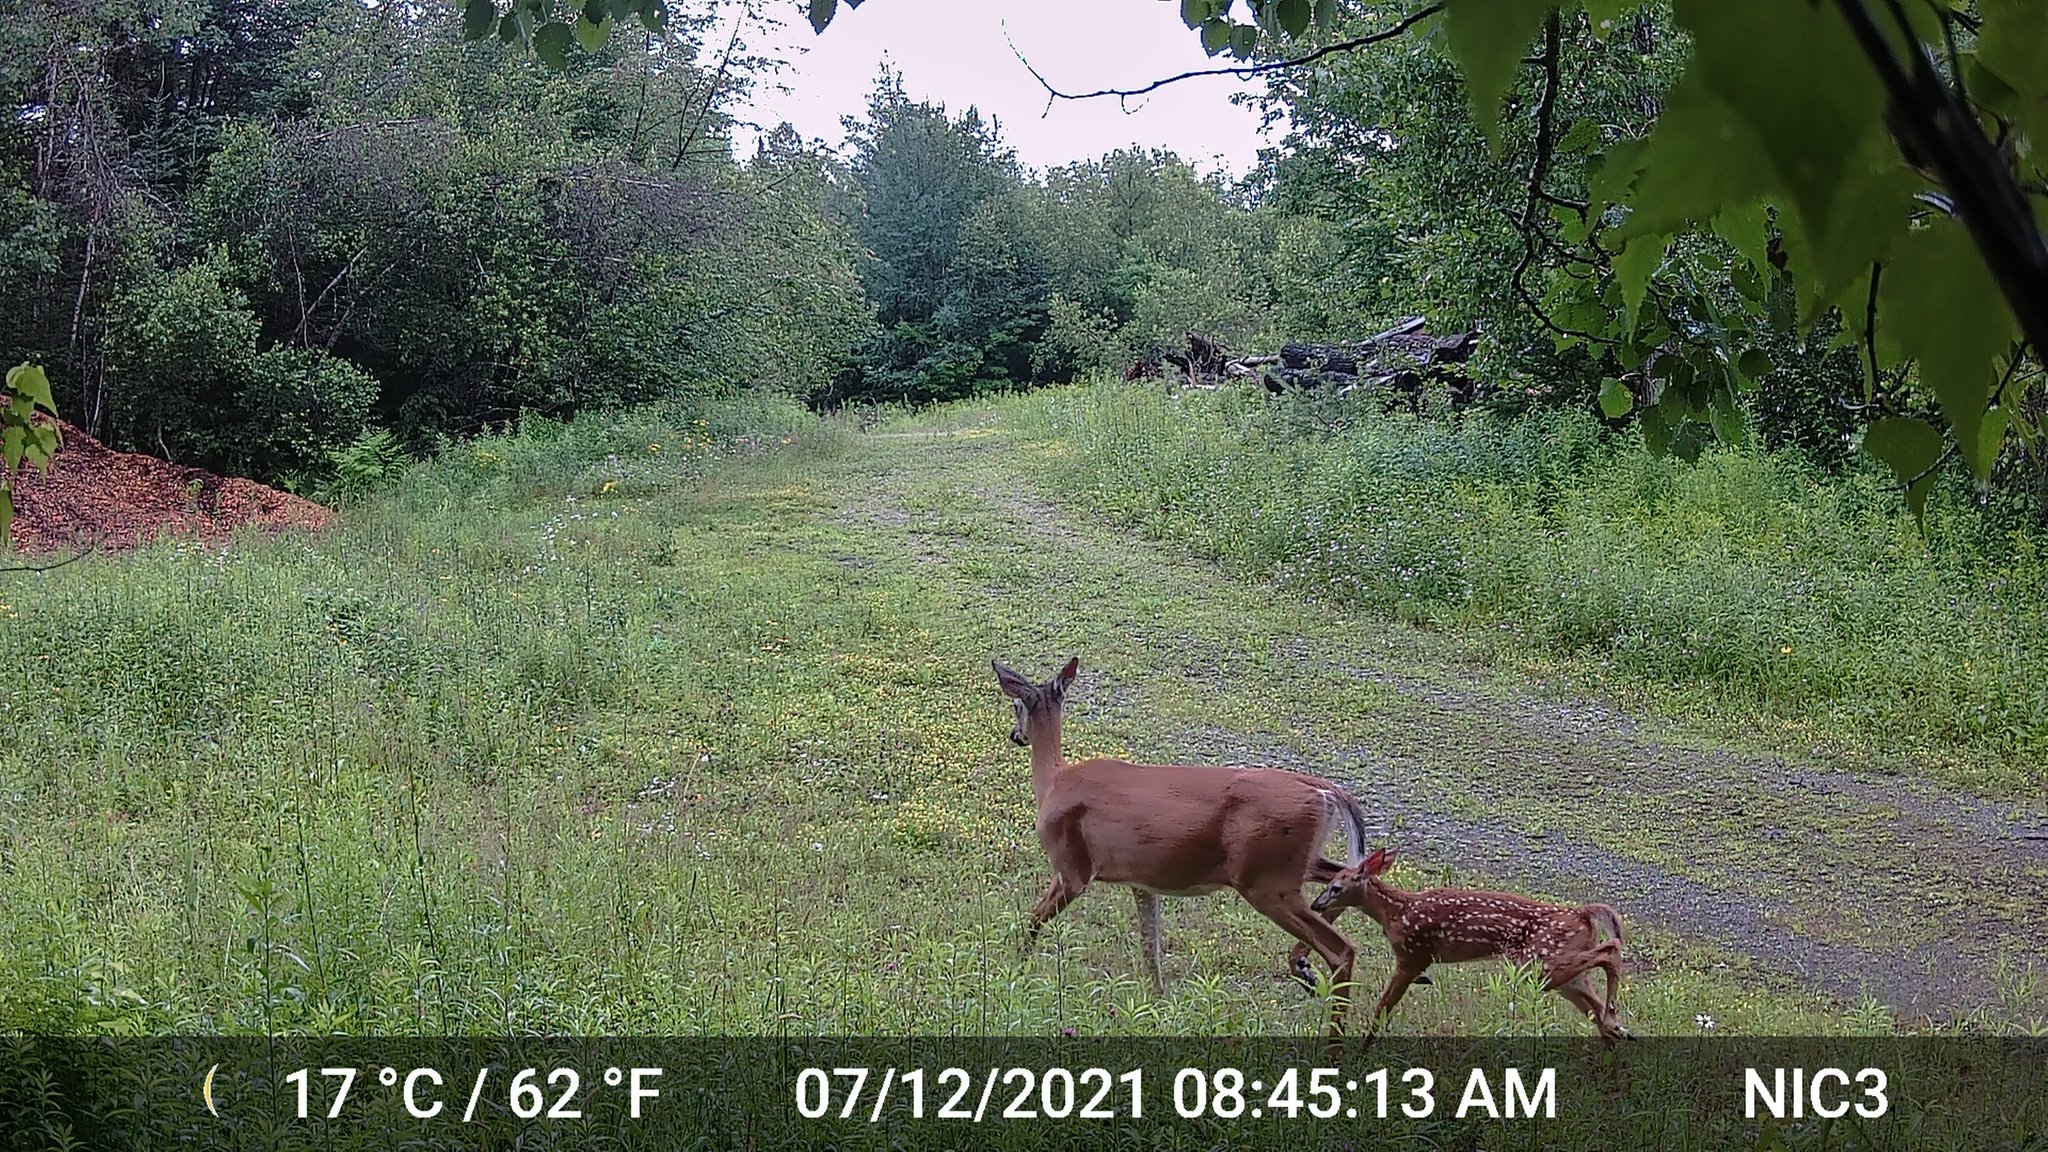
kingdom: Animalia
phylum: Chordata
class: Mammalia
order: Artiodactyla
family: Cervidae
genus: Odocoileus
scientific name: Odocoileus virginianus
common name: White-tailed deer
